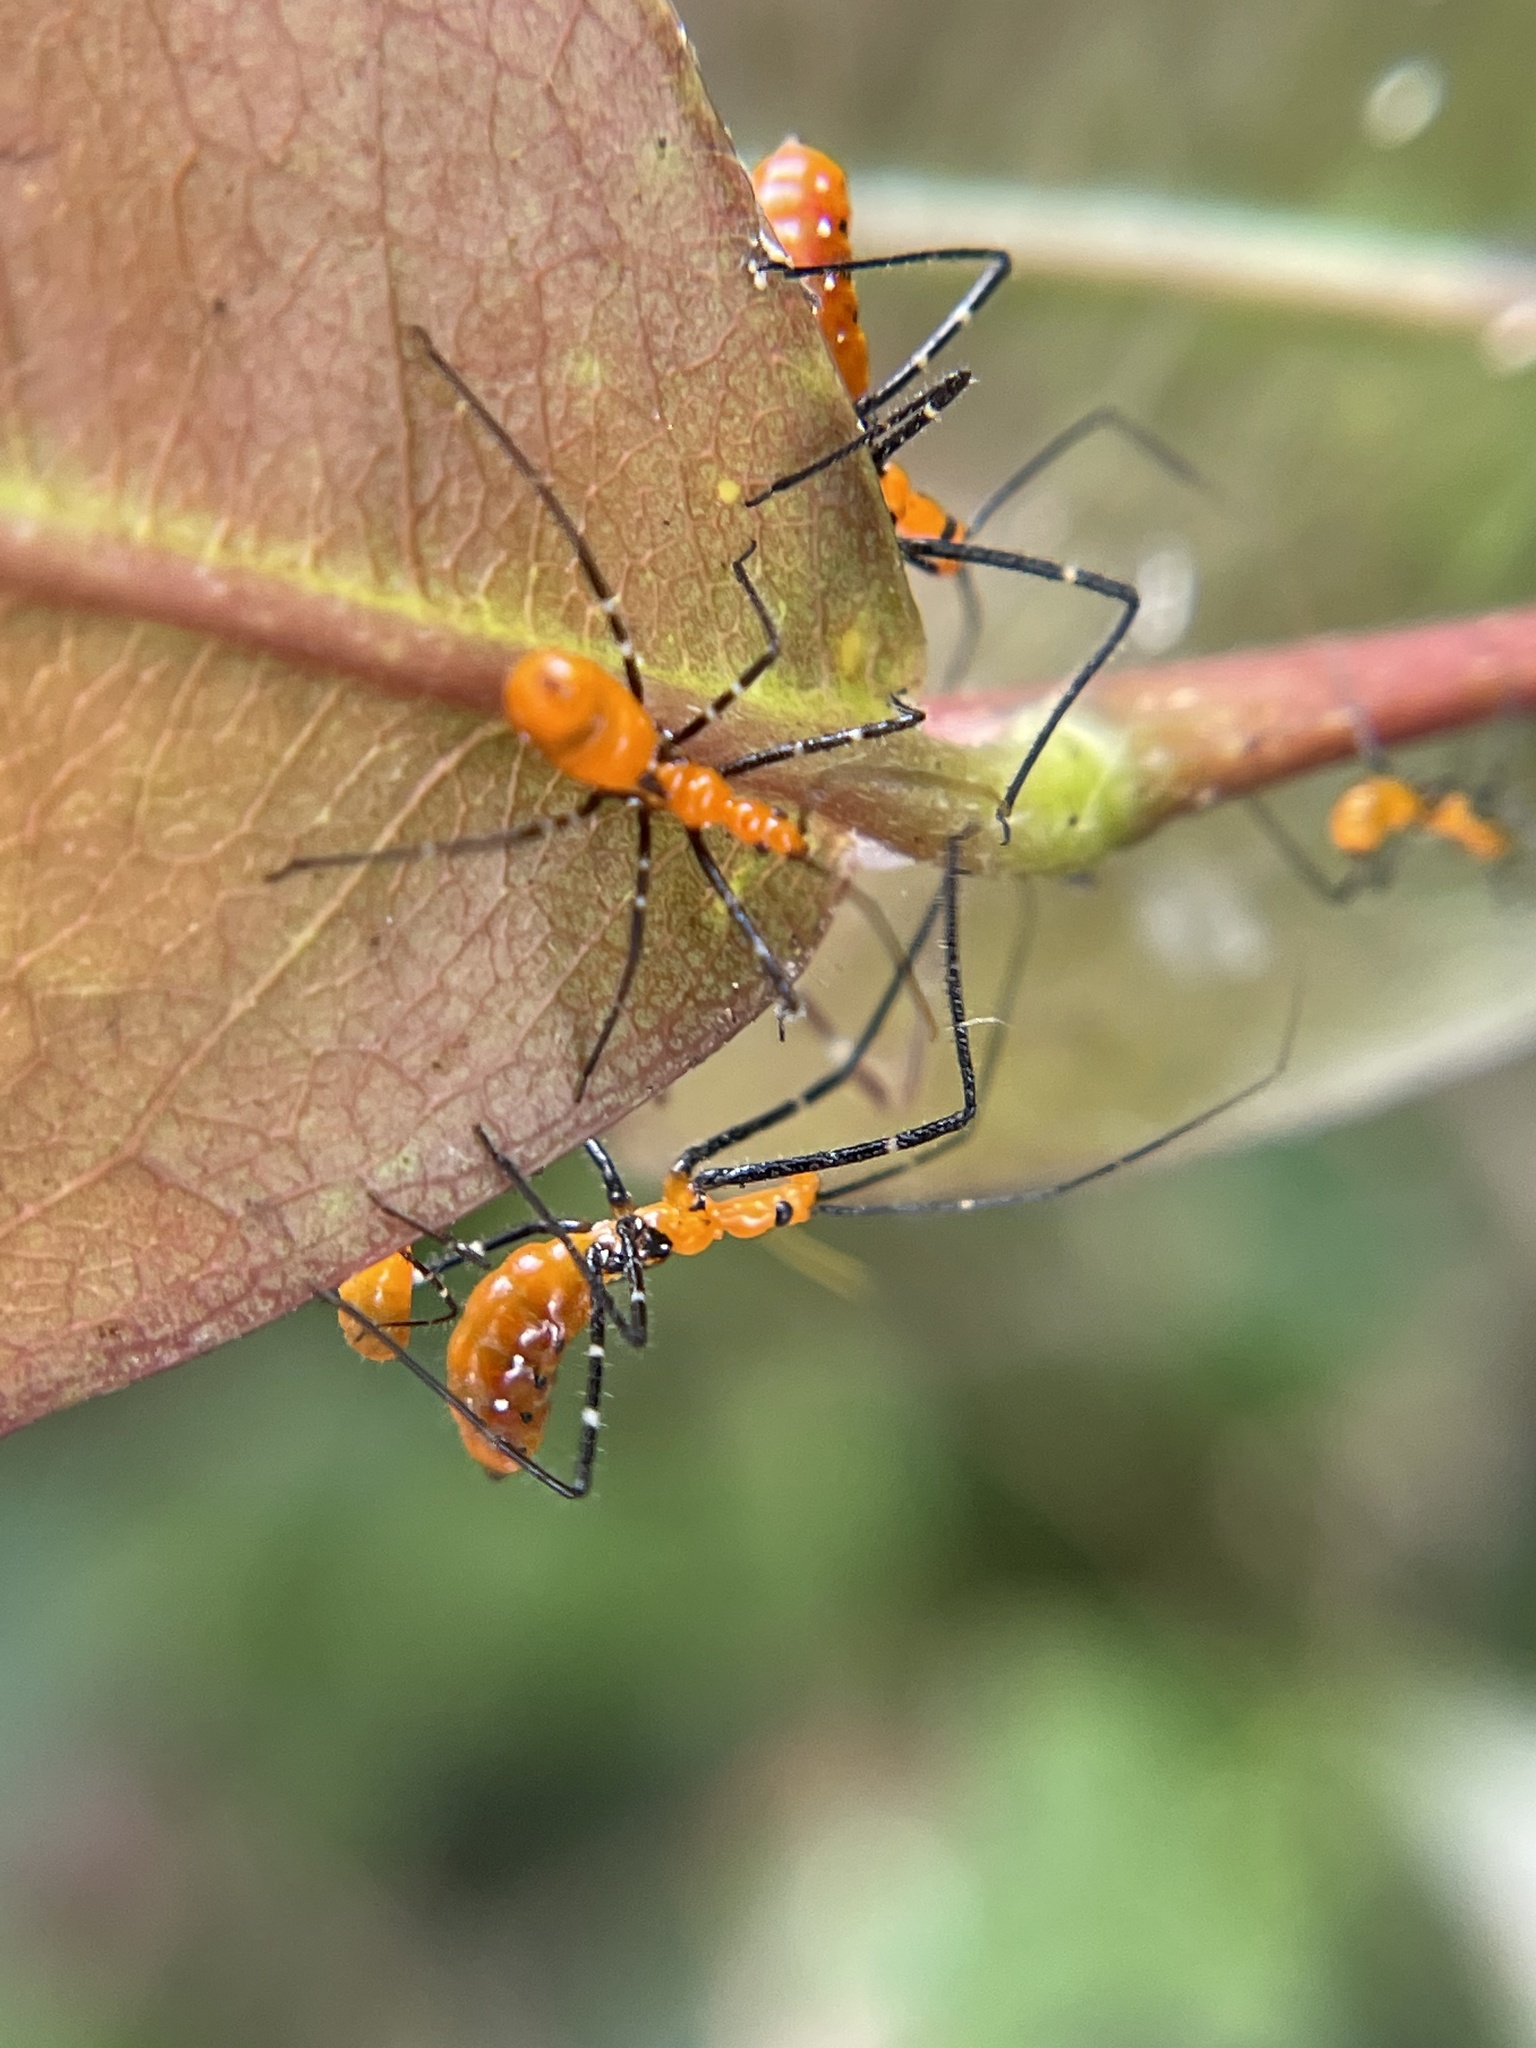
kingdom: Animalia
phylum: Arthropoda
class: Insecta
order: Hemiptera
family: Reduviidae
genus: Zelus
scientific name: Zelus longipes
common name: Milkweed assassin bug
